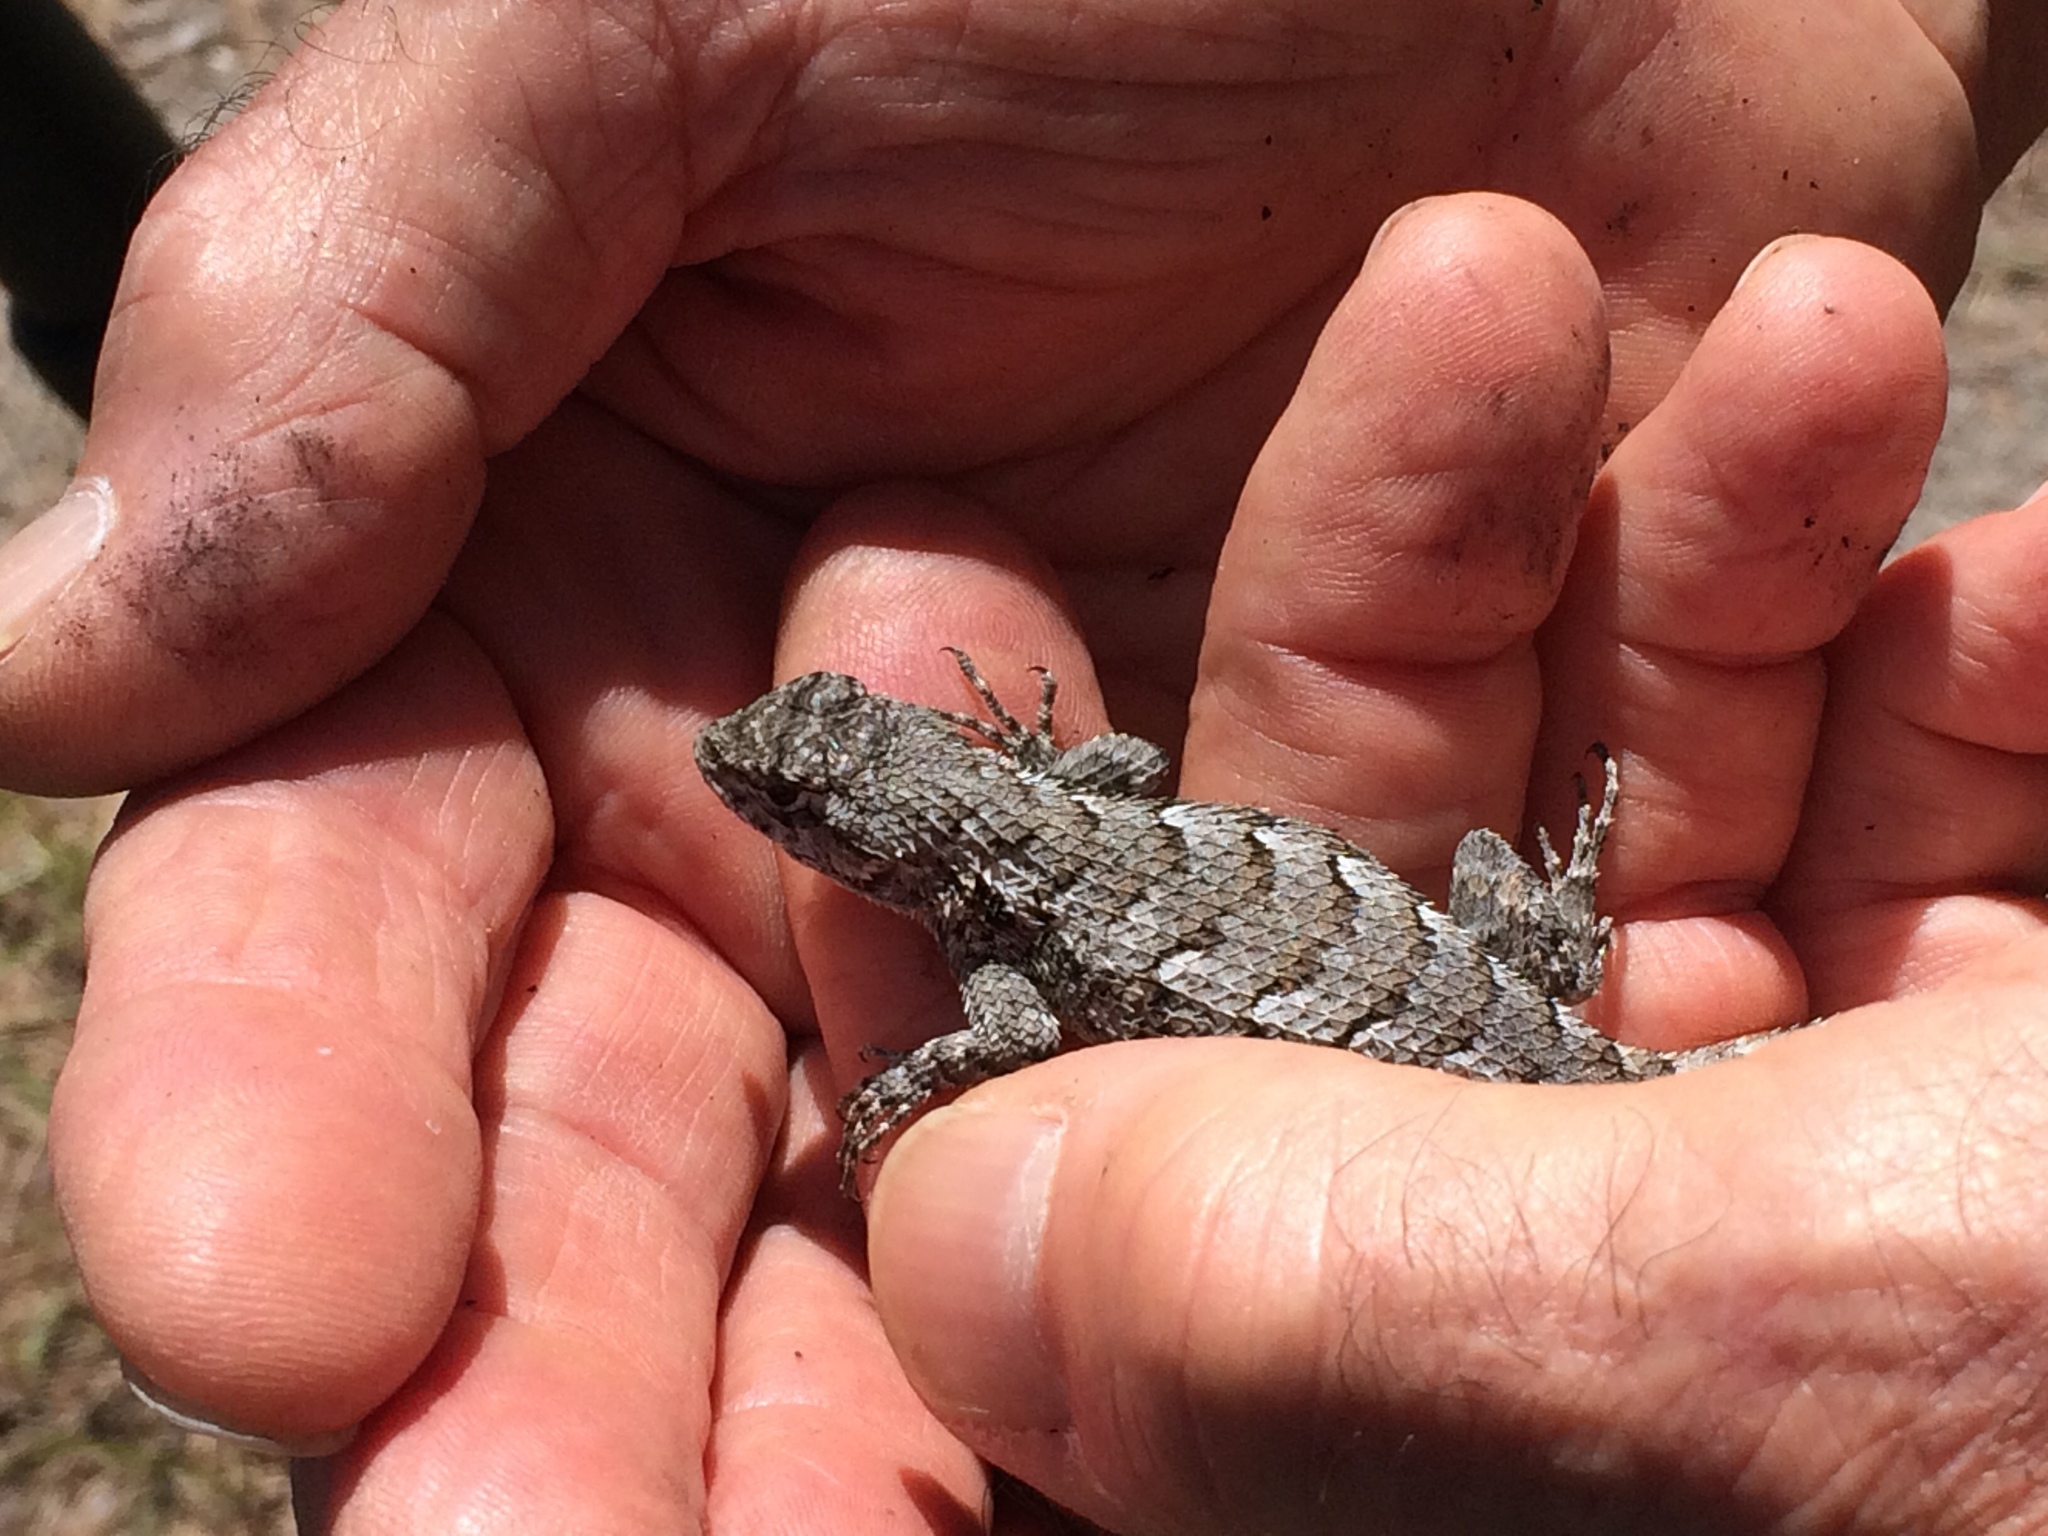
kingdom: Animalia
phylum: Chordata
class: Squamata
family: Phrynosomatidae
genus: Sceloporus
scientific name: Sceloporus undulatus
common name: Eastern fence lizard
